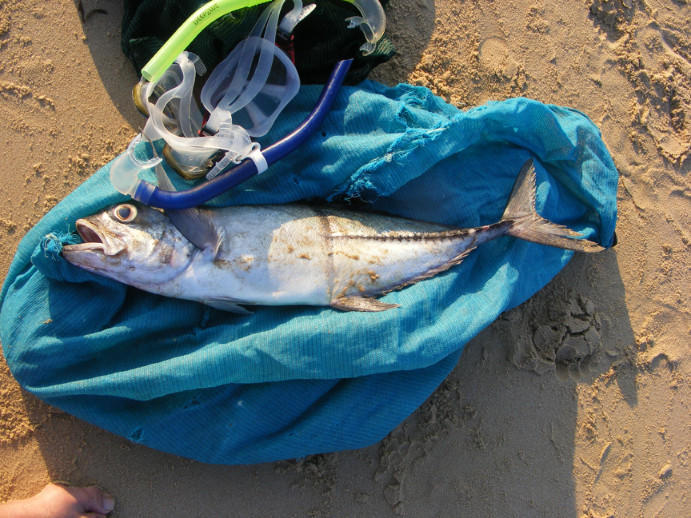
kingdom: Animalia
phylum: Chordata
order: Perciformes
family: Carangidae
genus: Caranx
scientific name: Caranx sexfasciatus
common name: Bigeye trevally
